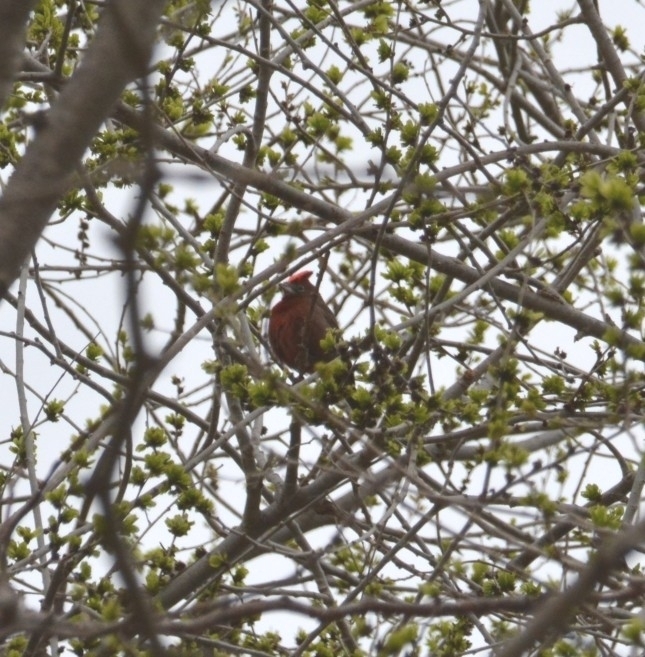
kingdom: Animalia
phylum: Chordata
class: Aves
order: Passeriformes
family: Thraupidae
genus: Coryphospingus
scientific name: Coryphospingus cucullatus
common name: Red pileated finch
